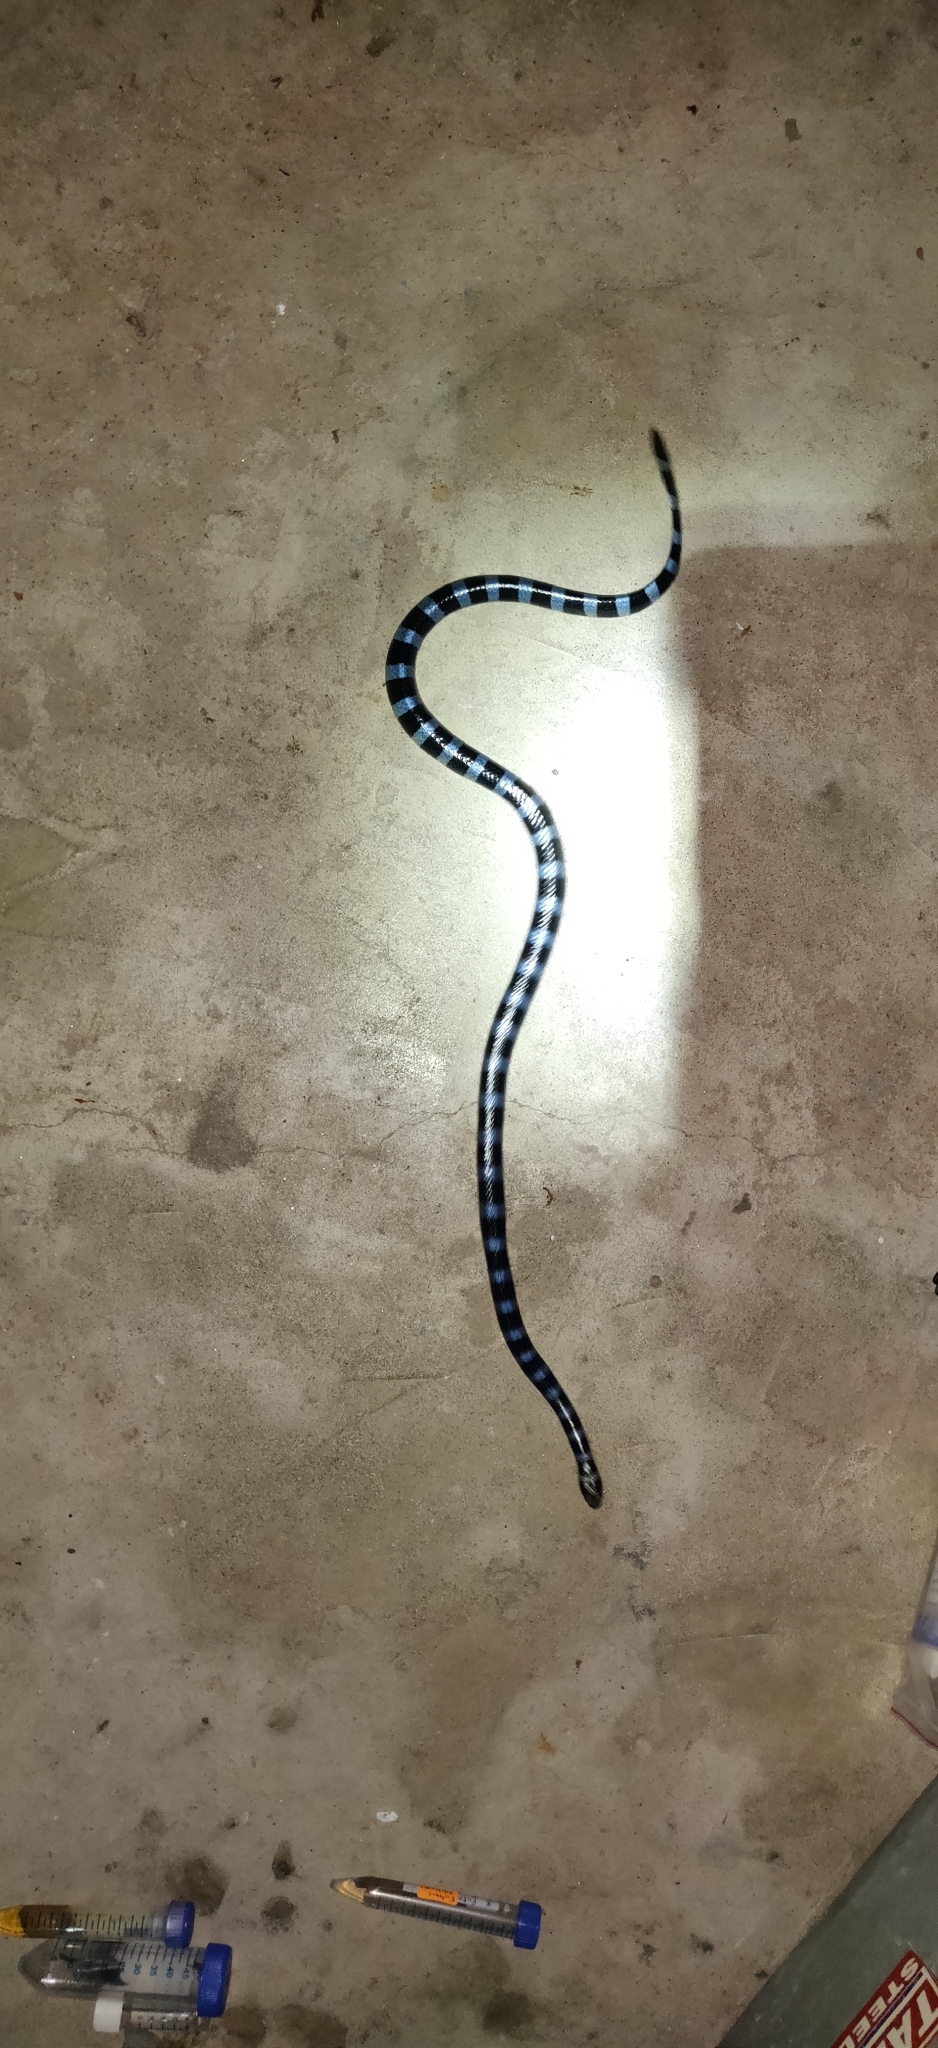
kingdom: Animalia
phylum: Chordata
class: Squamata
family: Elapidae
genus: Laticauda
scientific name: Laticauda laticaudata
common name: Blue-banded sea krait
